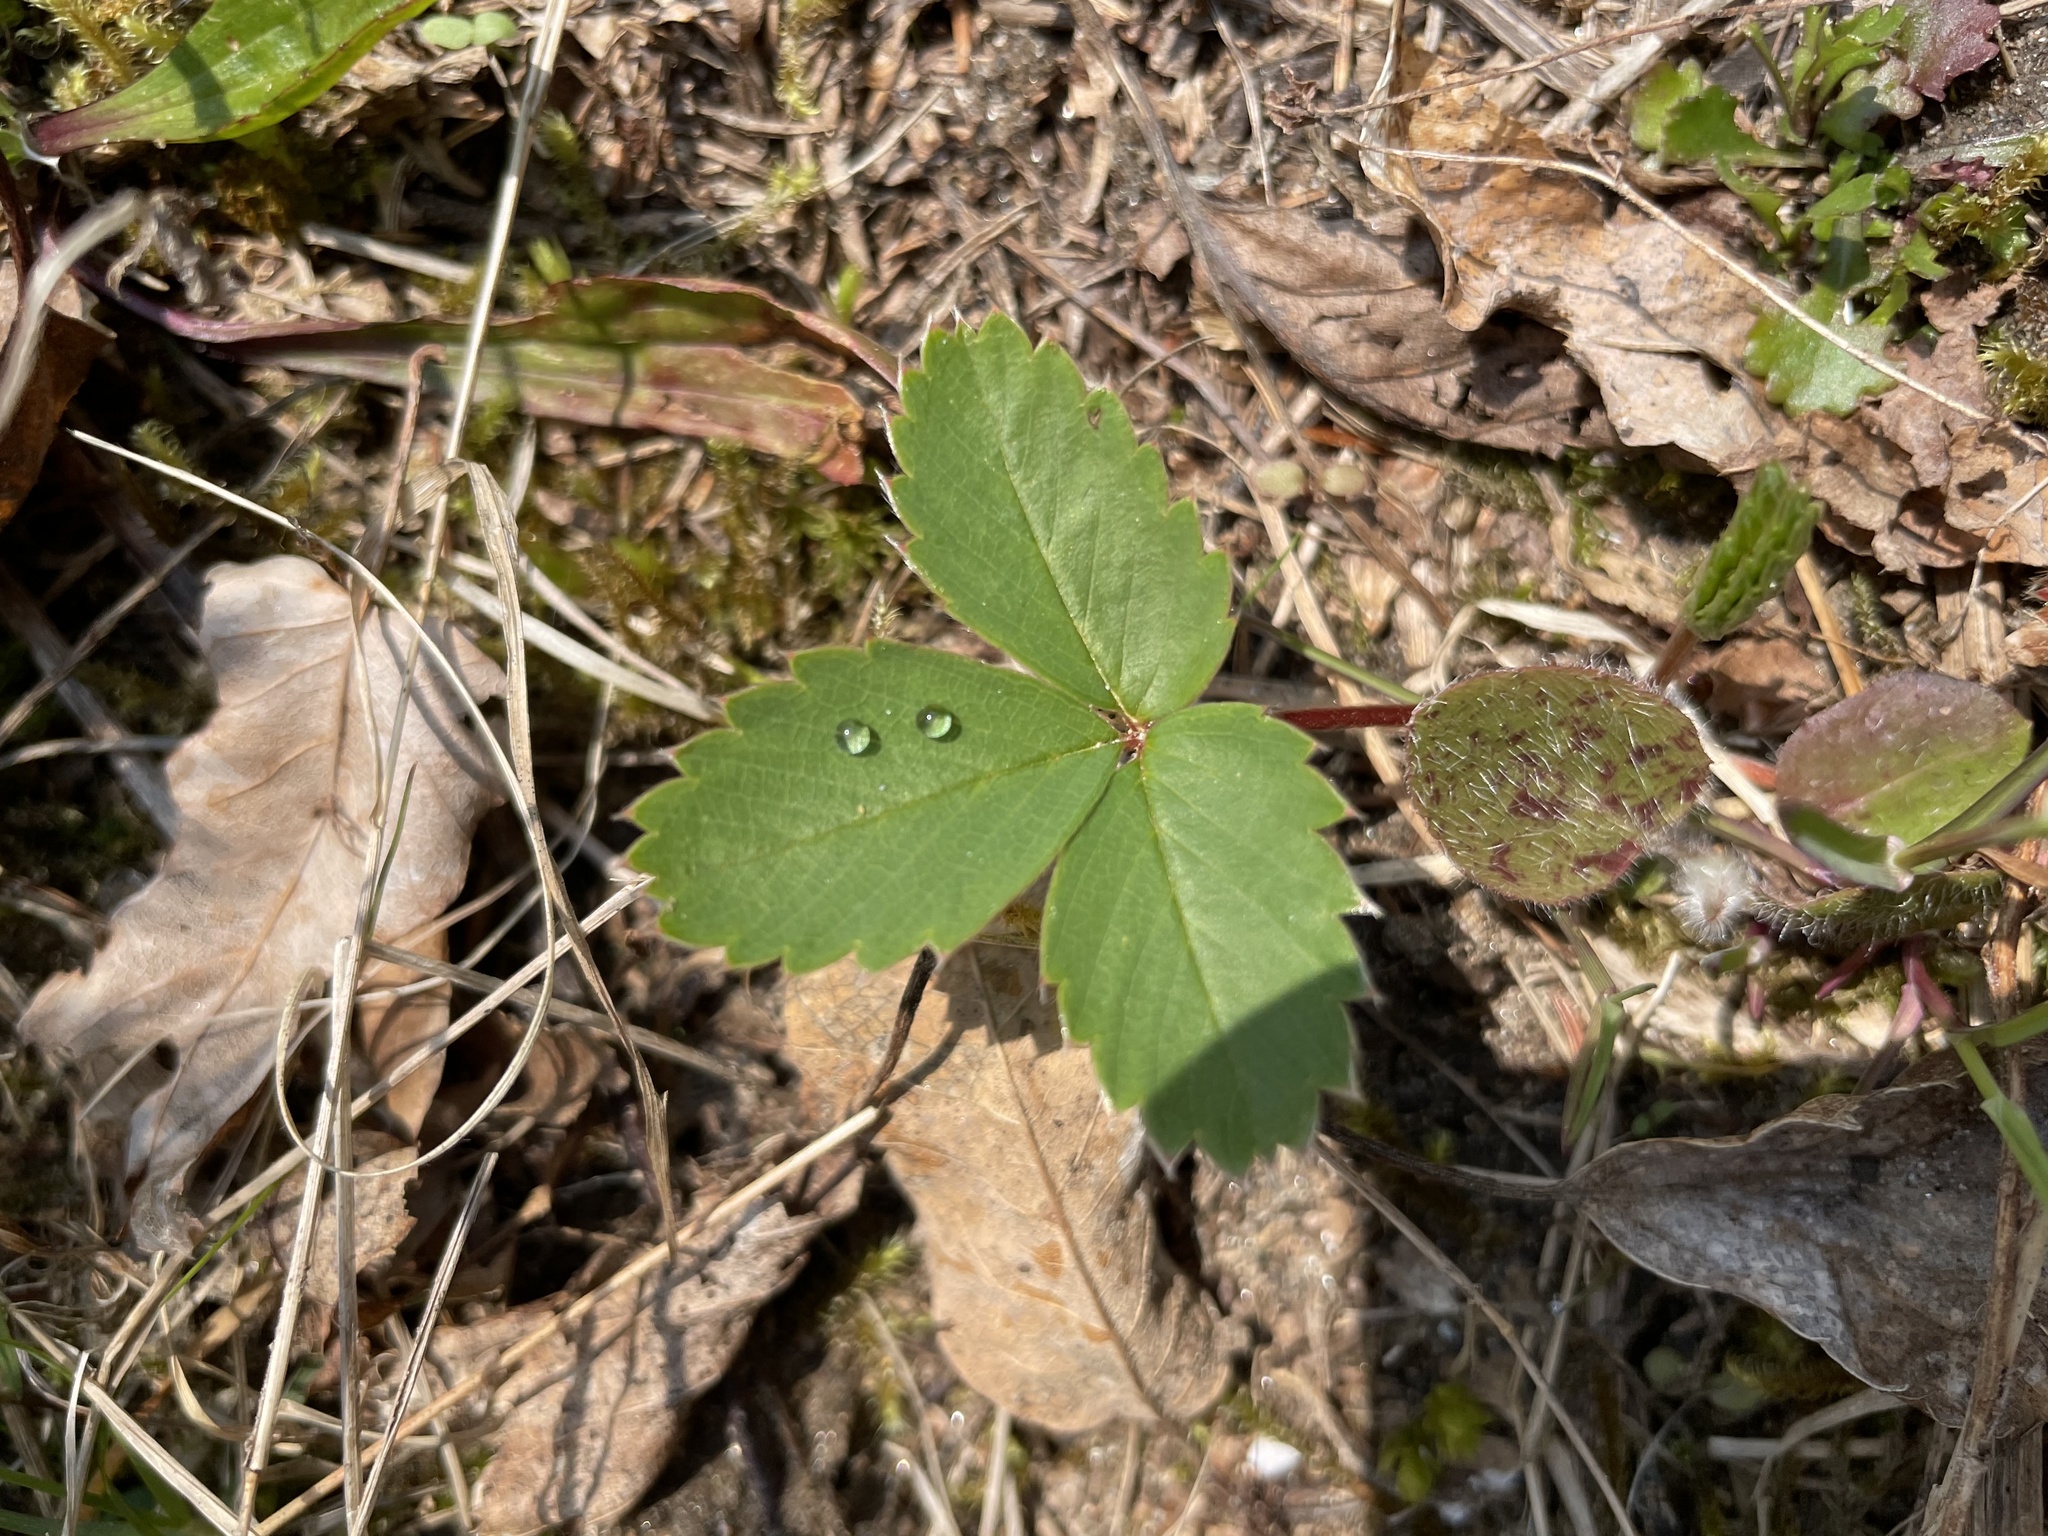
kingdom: Plantae
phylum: Tracheophyta
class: Magnoliopsida
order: Rosales
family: Rosaceae
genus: Fragaria
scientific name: Fragaria virginiana
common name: Thickleaved wild strawberry
